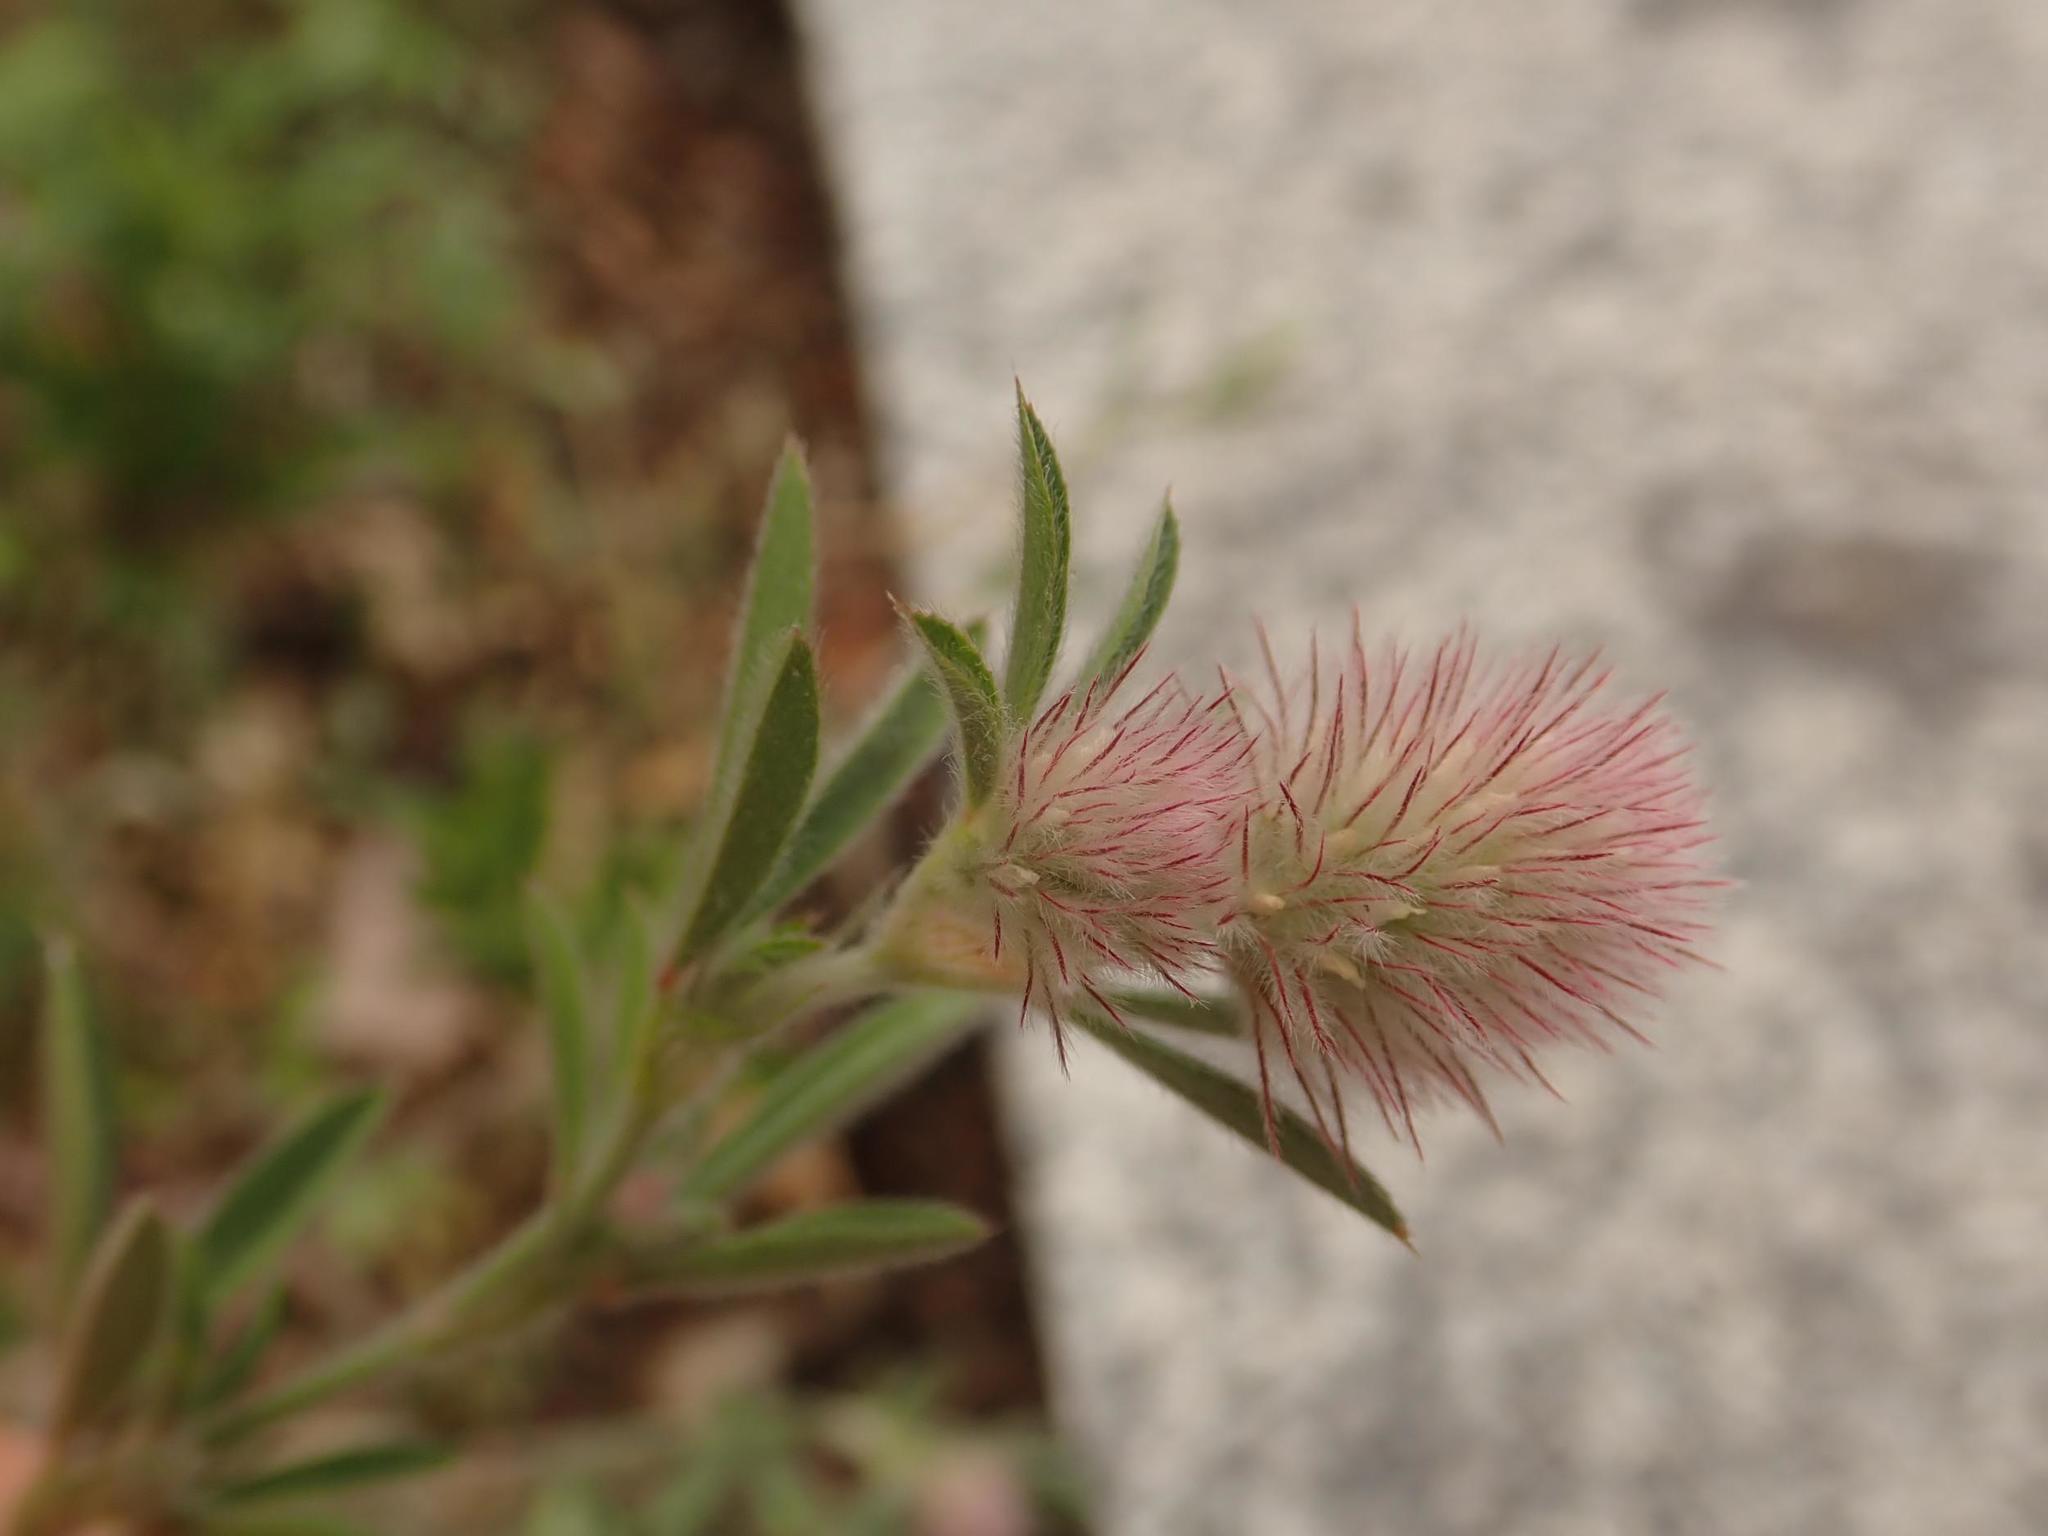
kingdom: Plantae
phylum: Tracheophyta
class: Magnoliopsida
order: Fabales
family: Fabaceae
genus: Trifolium
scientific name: Trifolium arvense
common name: Hare's-foot clover
